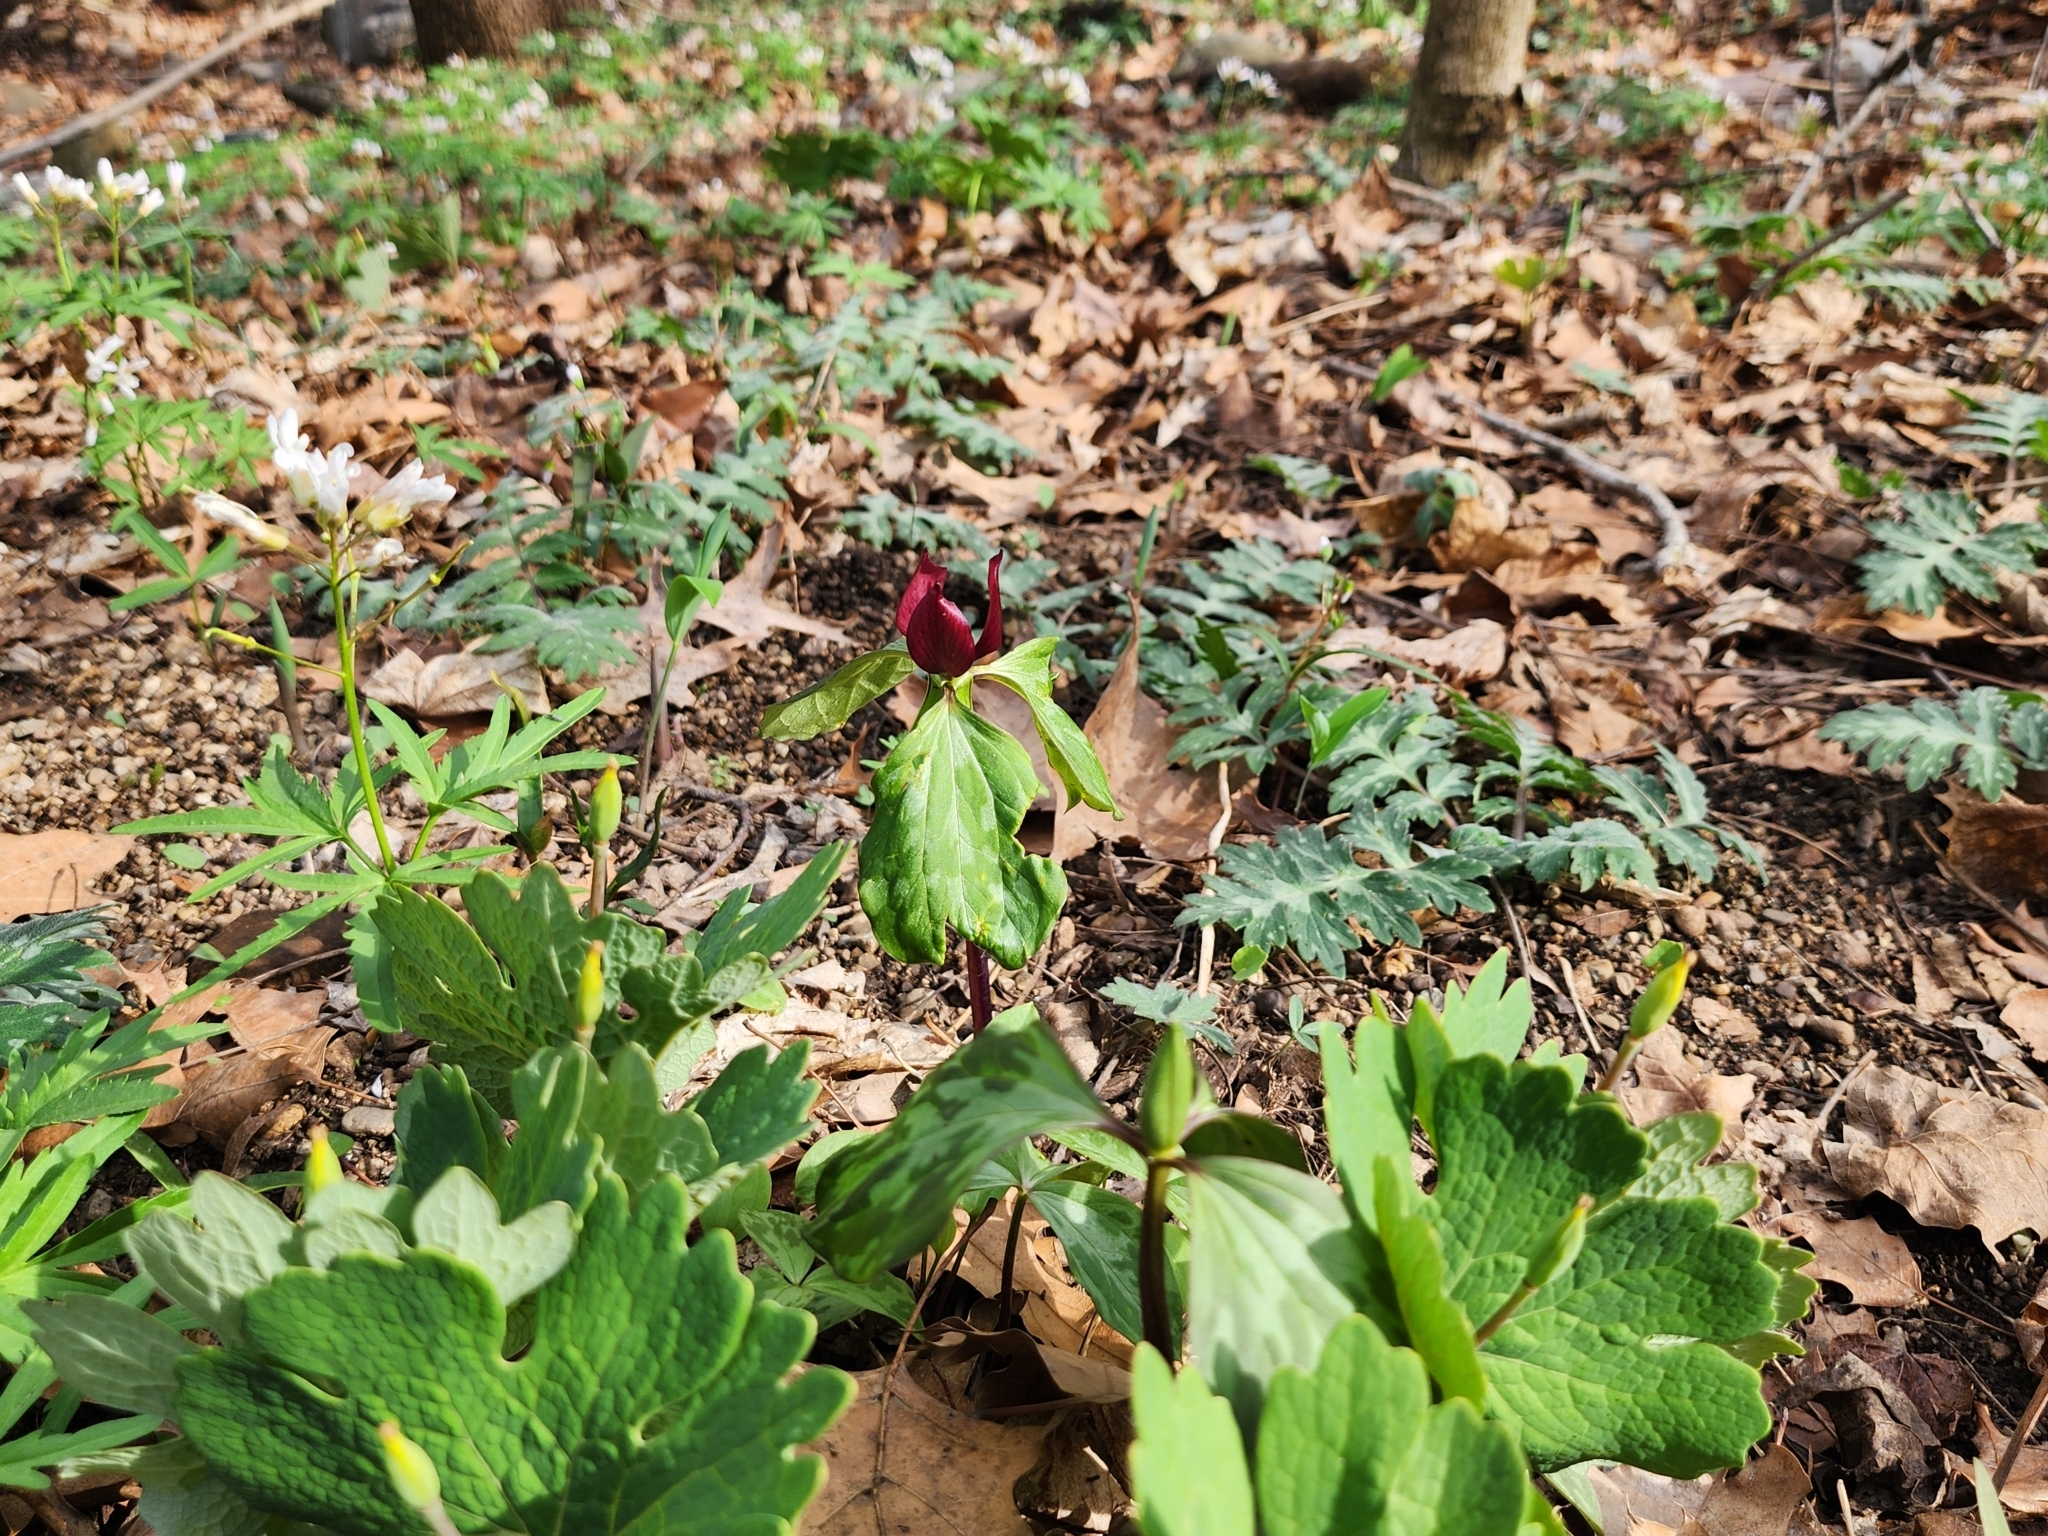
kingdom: Plantae
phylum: Tracheophyta
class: Liliopsida
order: Liliales
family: Melanthiaceae
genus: Trillium
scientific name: Trillium recurvatum
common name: Bloody butcher
